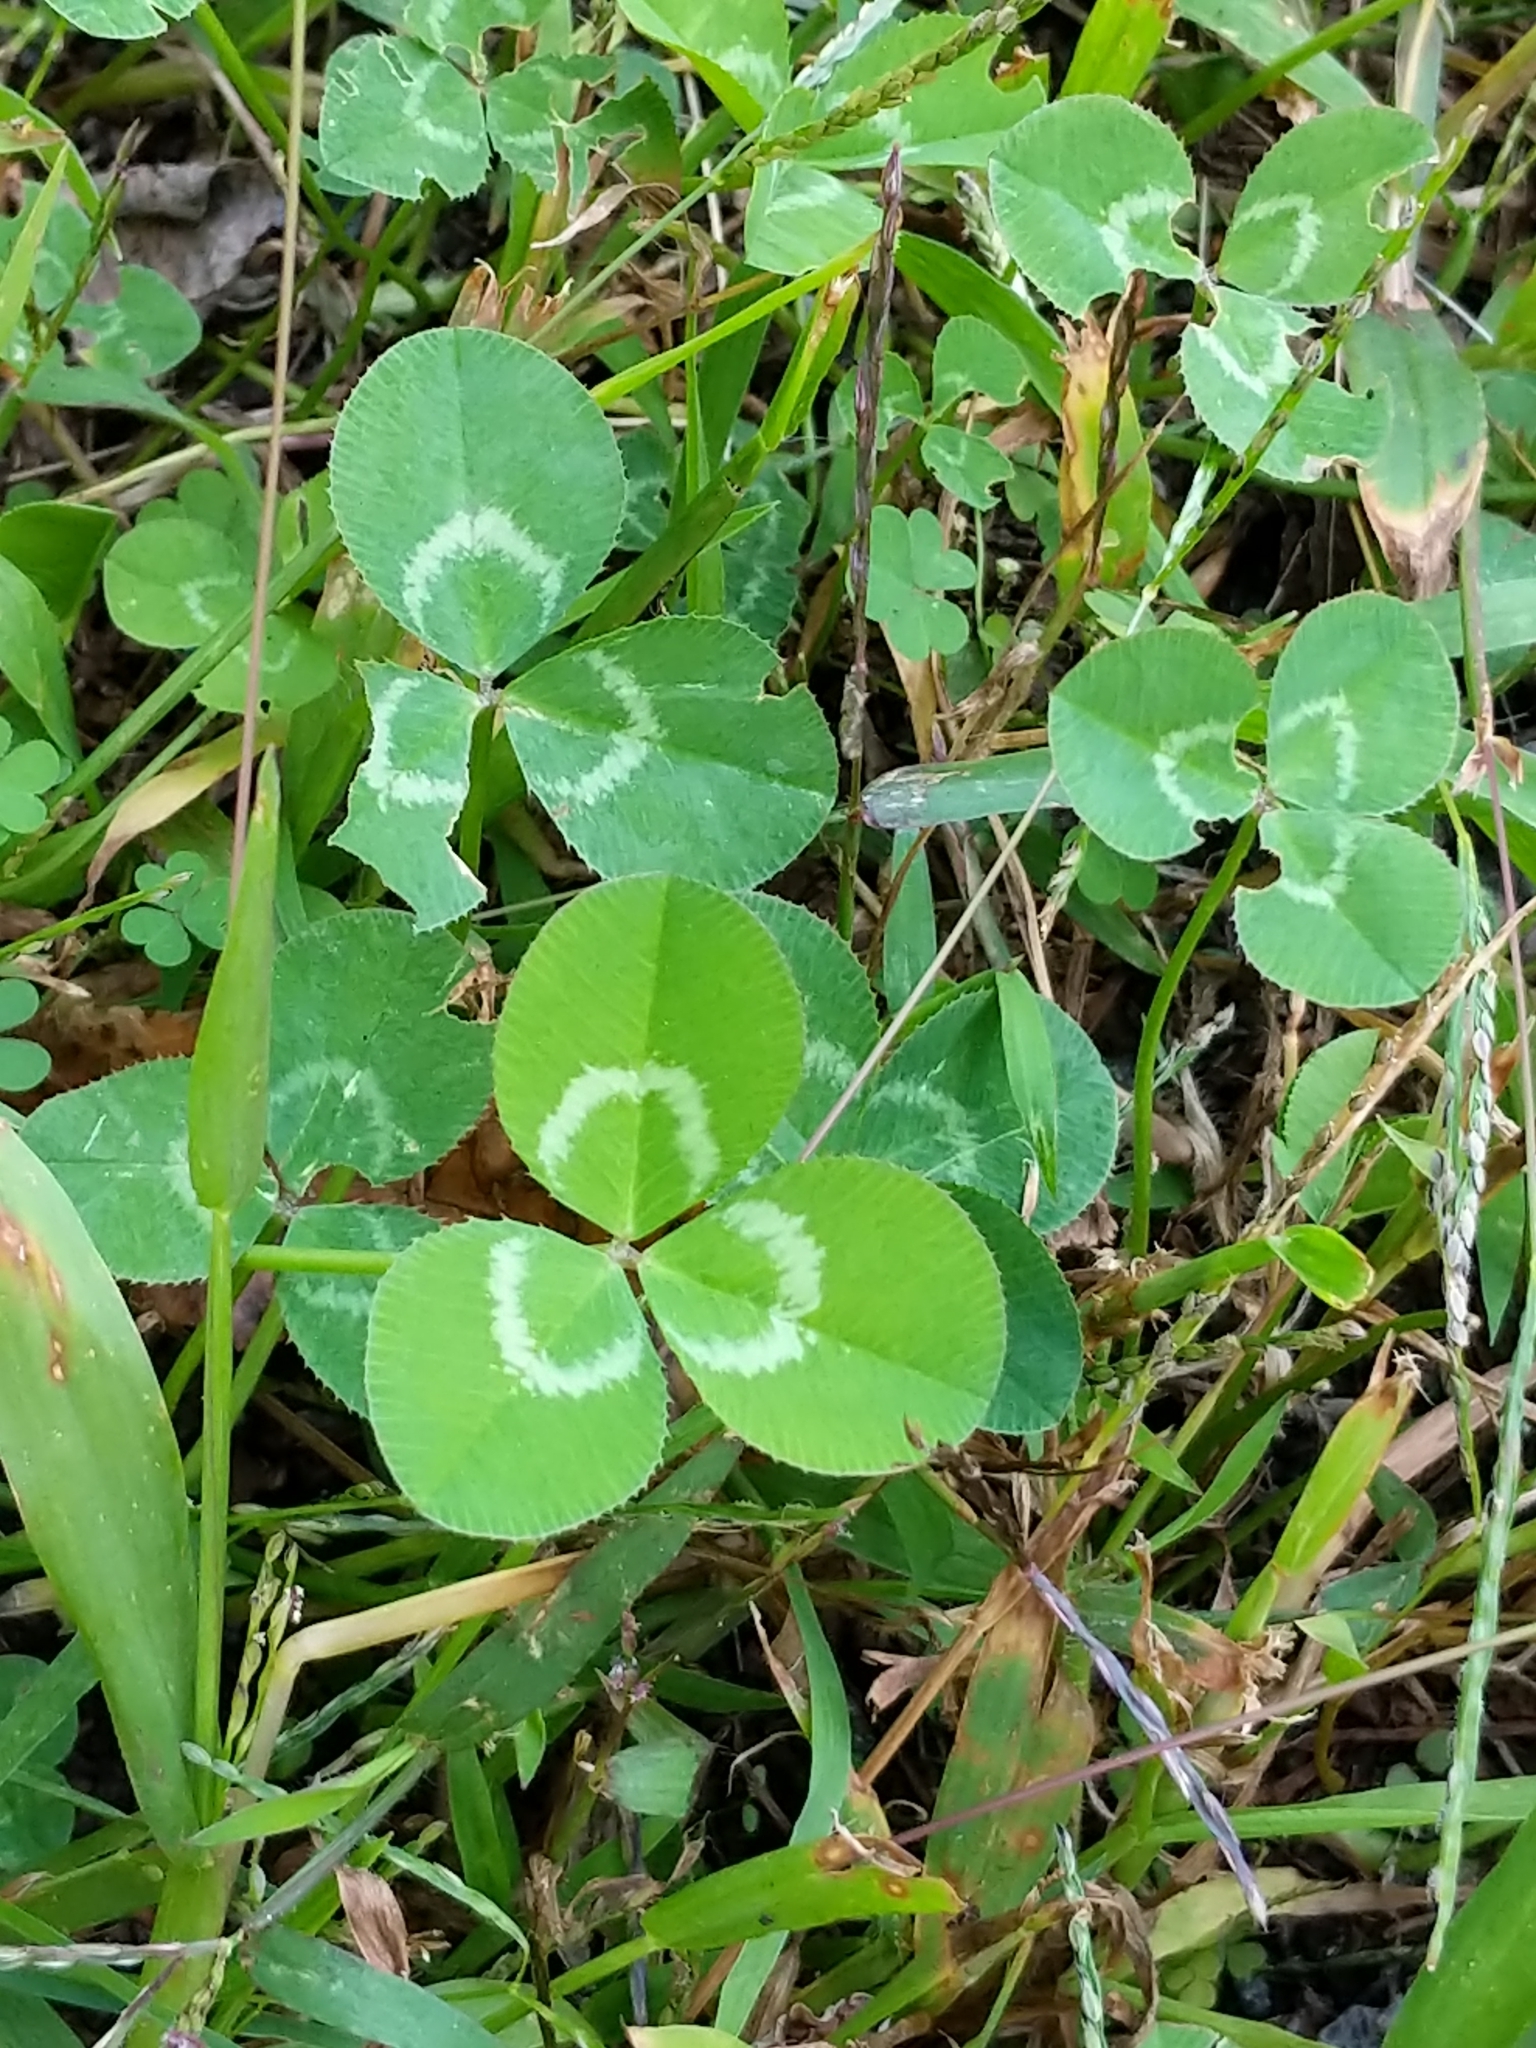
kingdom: Plantae
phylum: Tracheophyta
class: Magnoliopsida
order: Fabales
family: Fabaceae
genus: Trifolium
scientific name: Trifolium repens
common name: White clover
